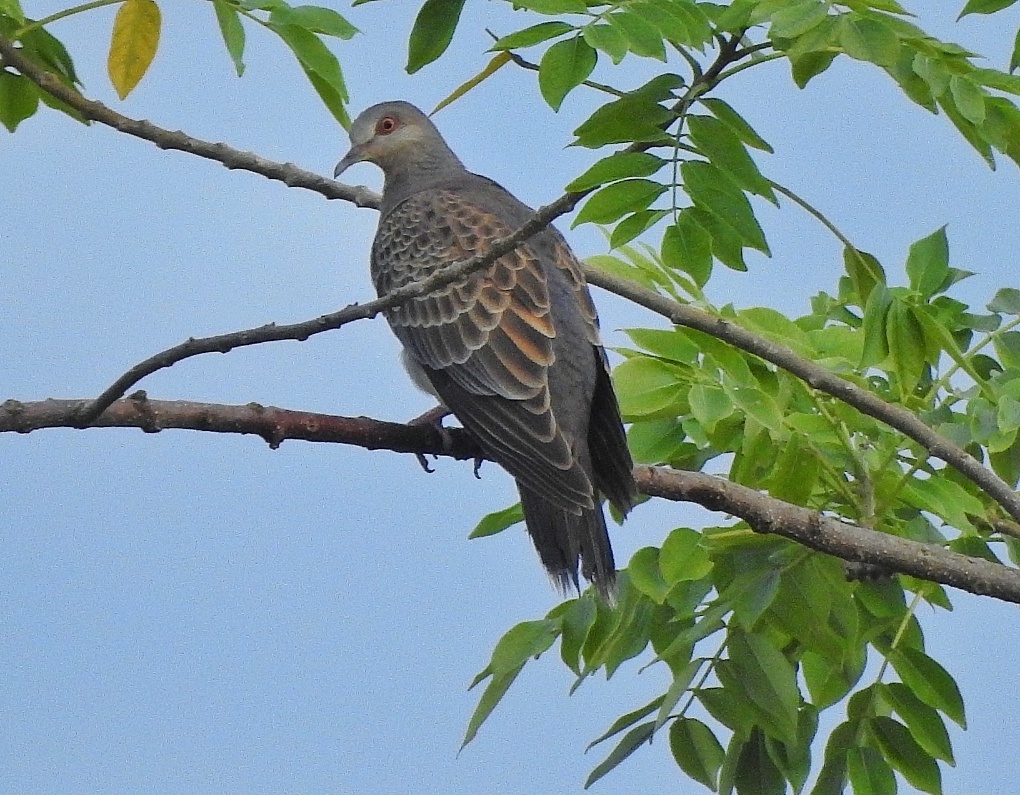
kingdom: Animalia
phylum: Chordata
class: Aves
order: Columbiformes
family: Columbidae
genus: Streptopelia
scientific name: Streptopelia orientalis
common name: Oriental turtle dove
